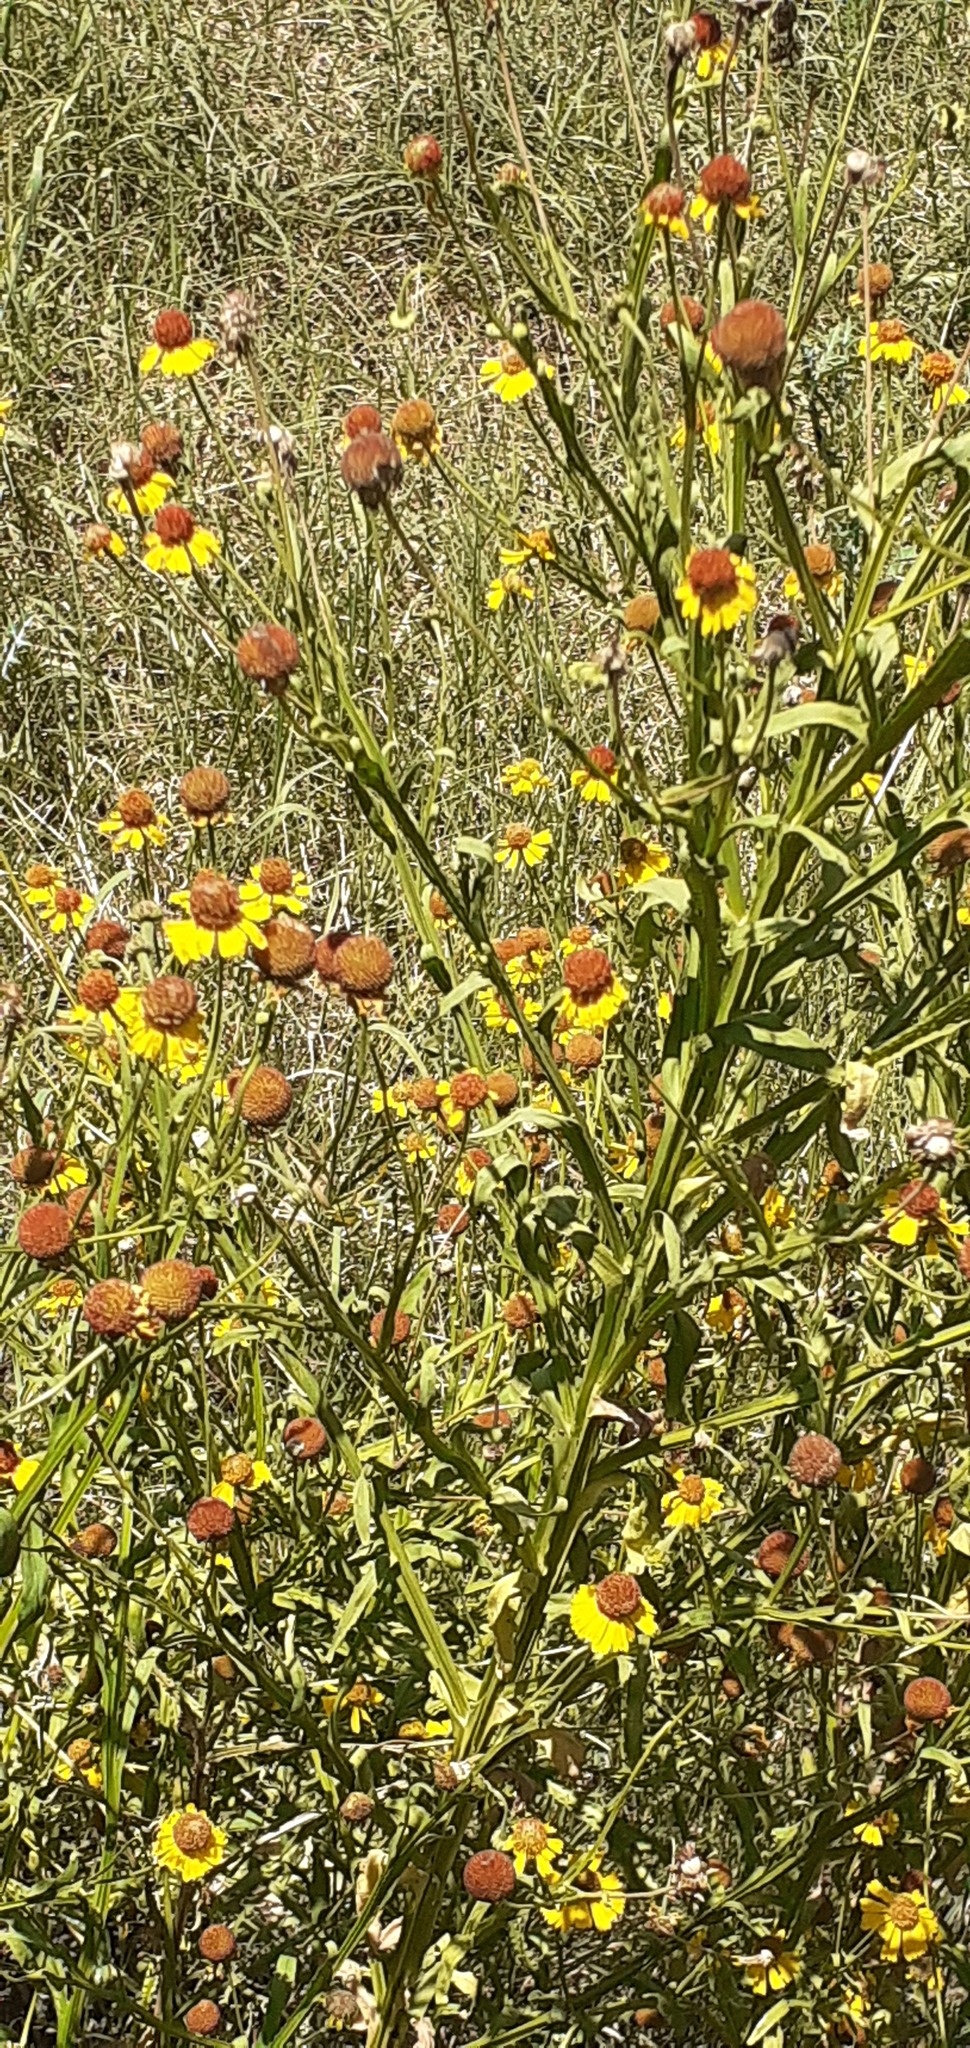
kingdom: Plantae
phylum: Tracheophyta
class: Magnoliopsida
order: Asterales
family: Asteraceae
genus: Helenium
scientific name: Helenium amphibolum
